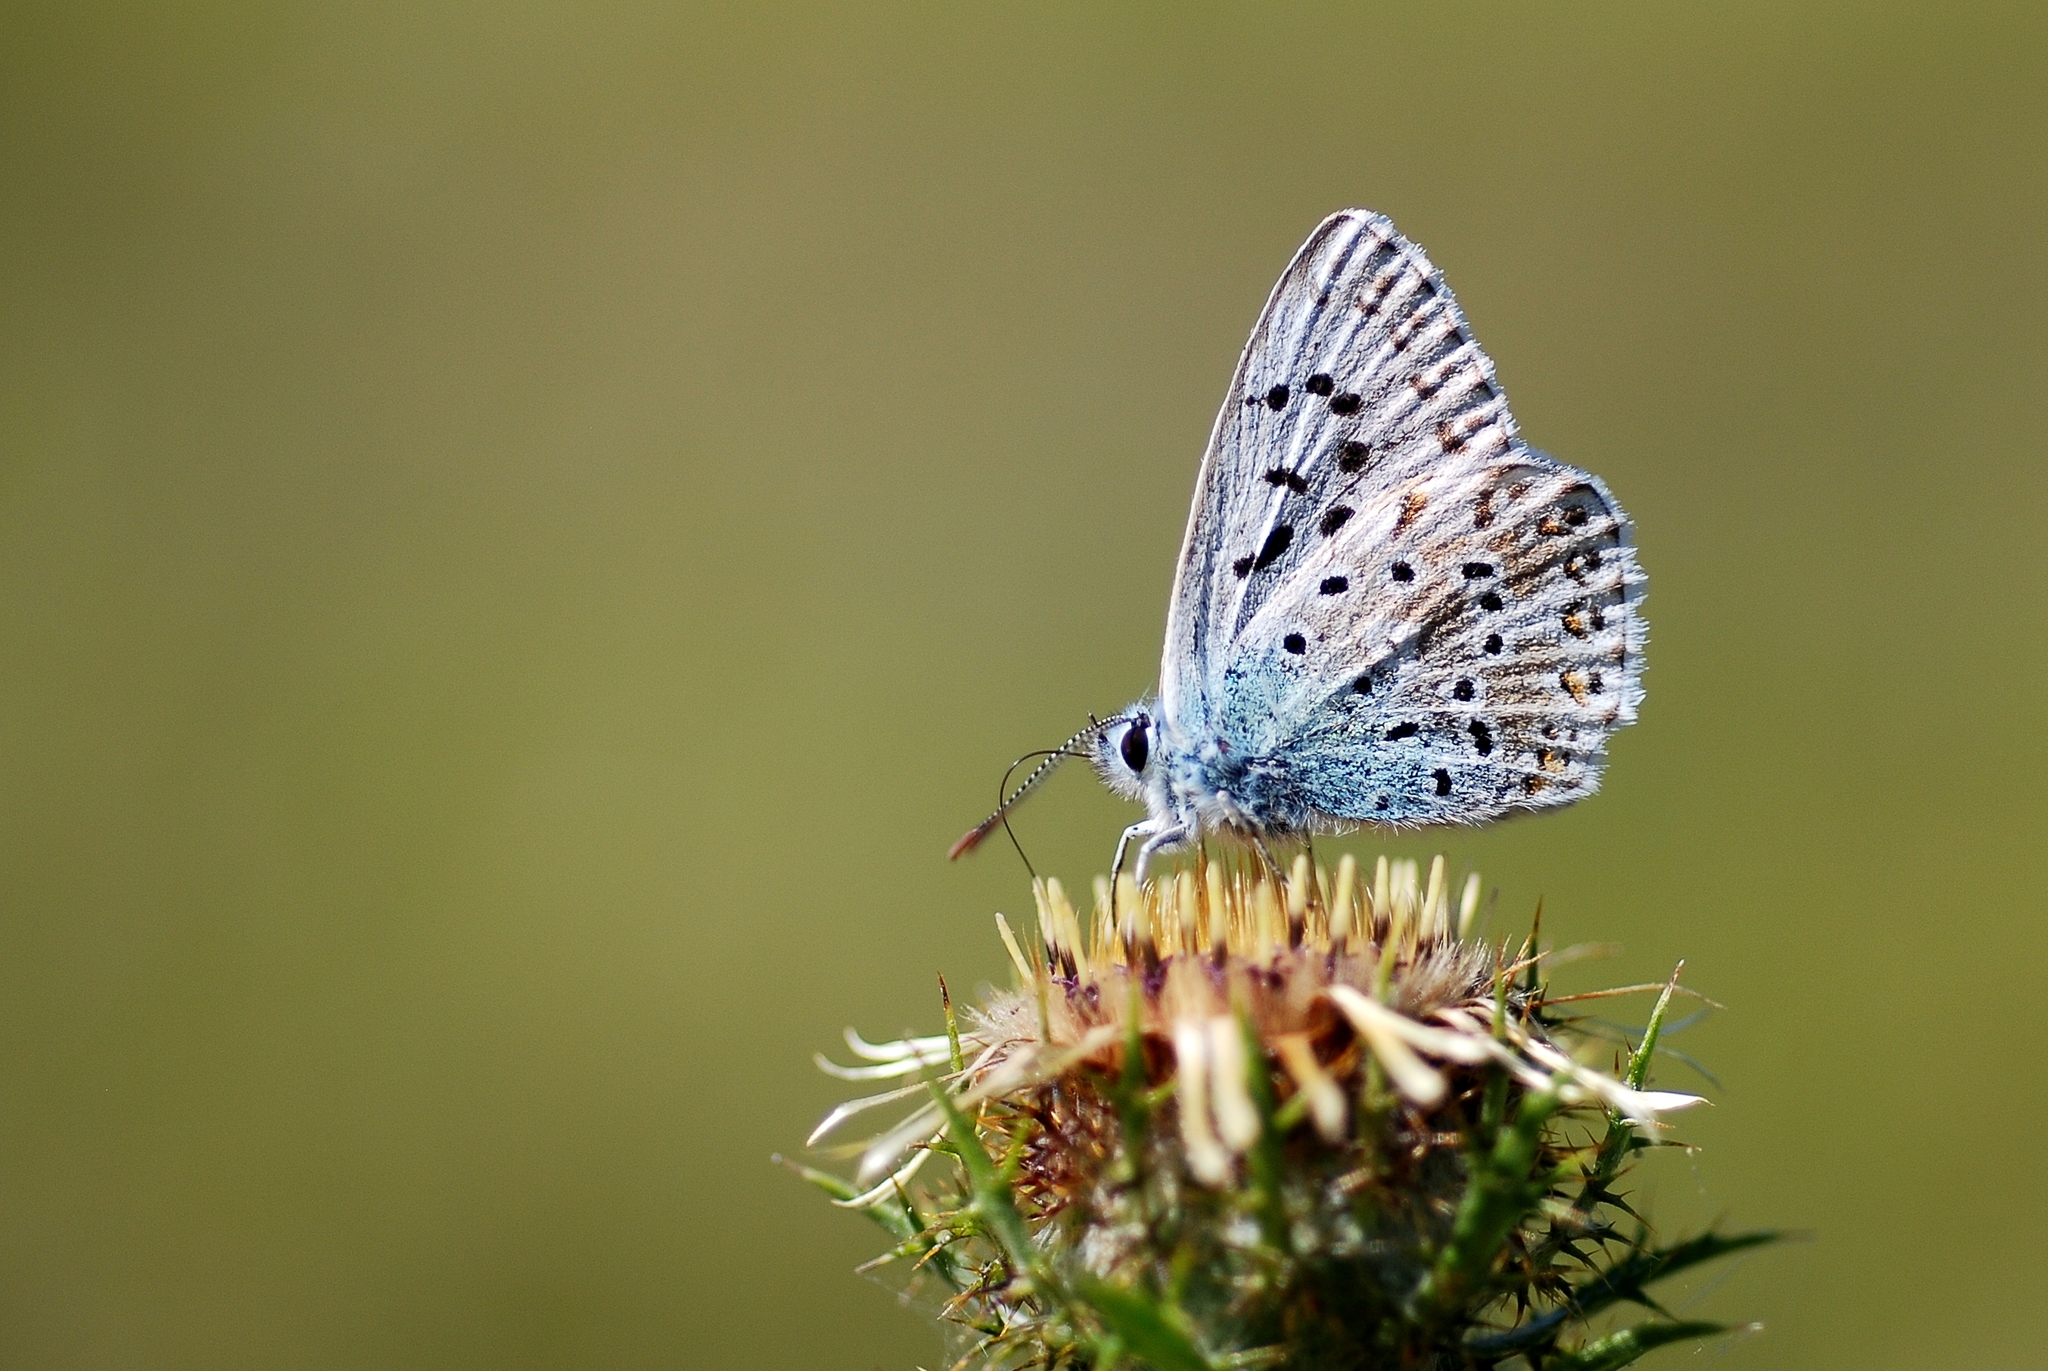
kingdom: Animalia
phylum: Arthropoda
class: Insecta
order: Lepidoptera
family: Lycaenidae
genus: Lysandra
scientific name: Lysandra coridon
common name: Chalkhill blue
